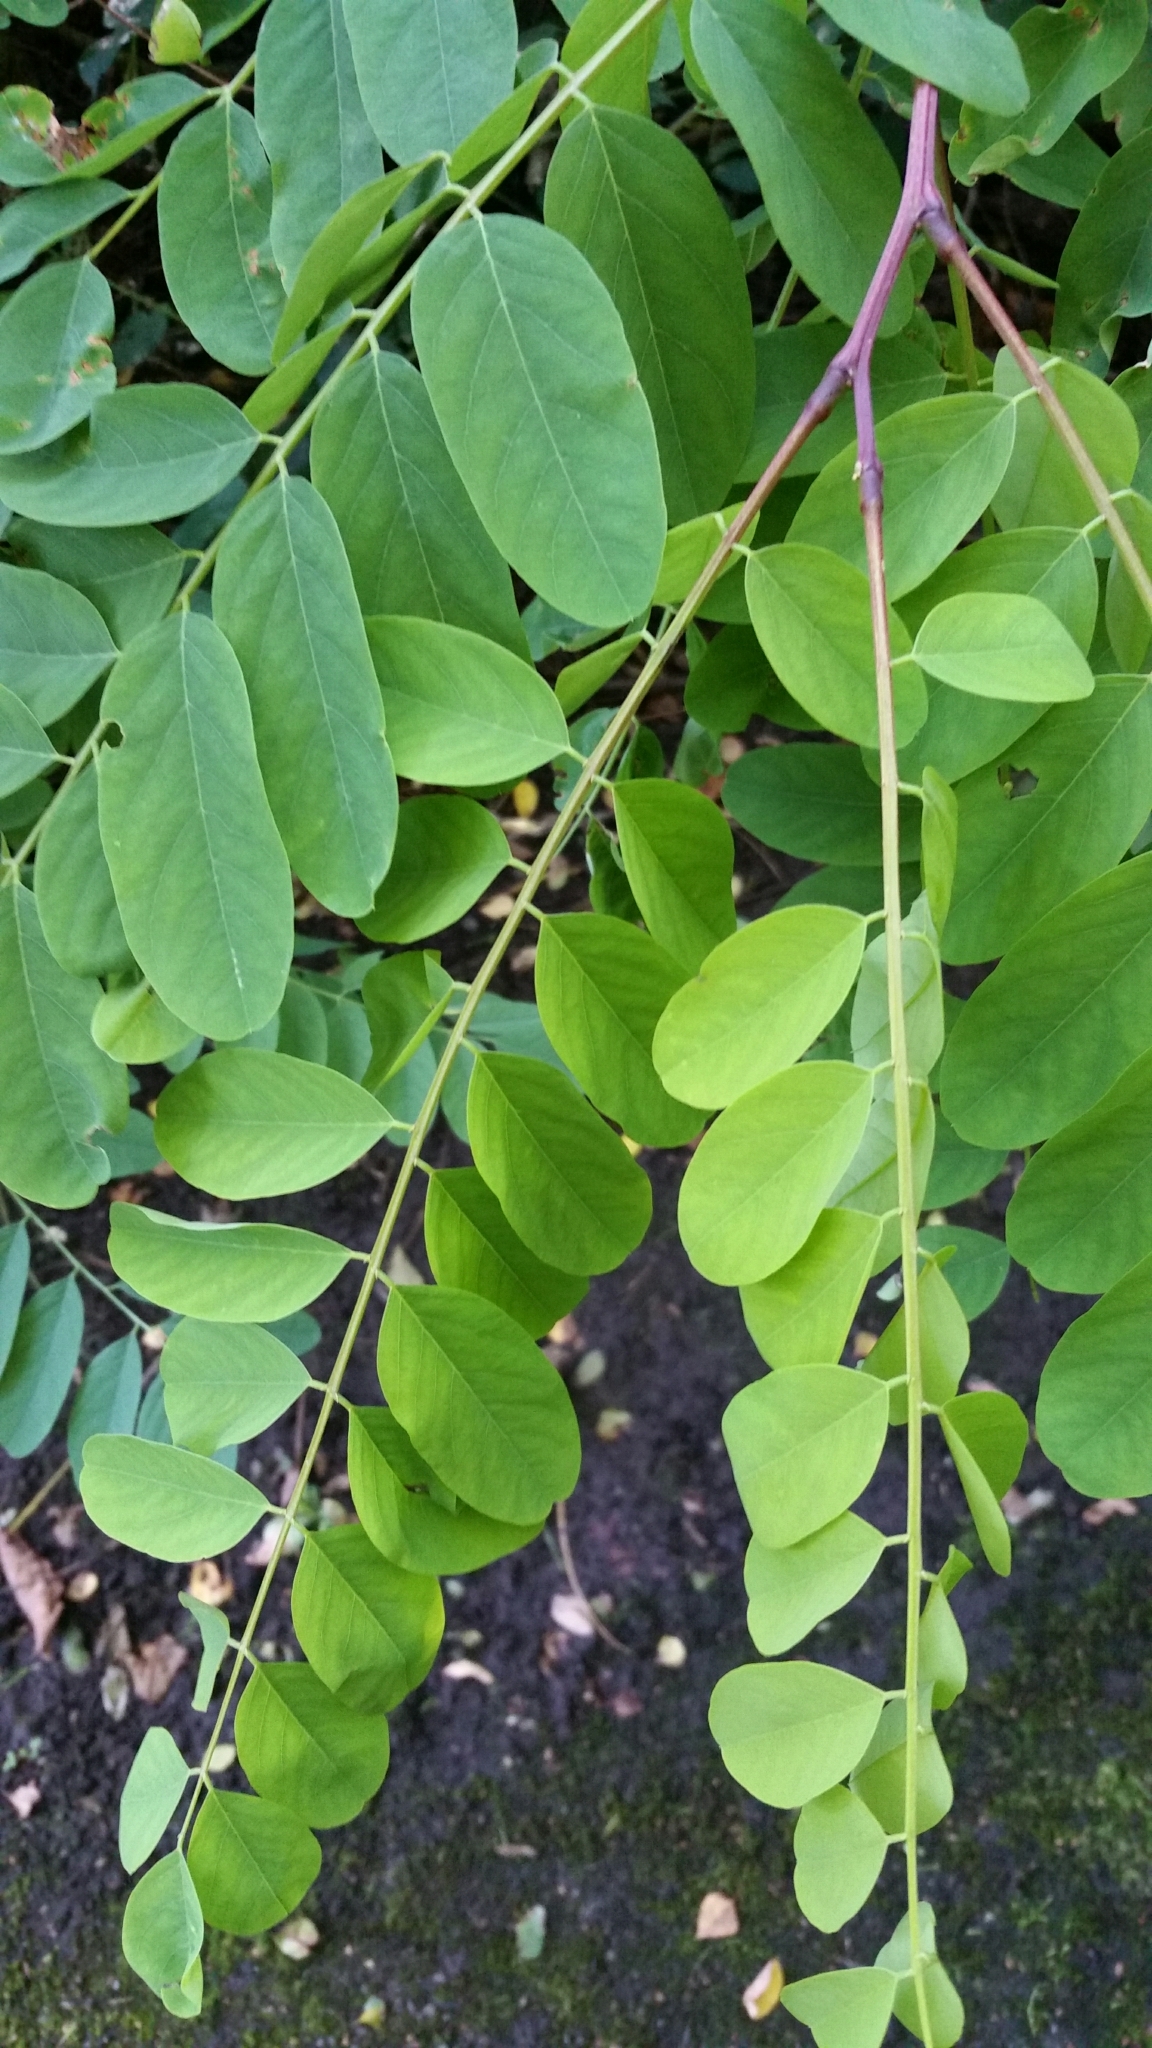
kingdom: Plantae
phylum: Tracheophyta
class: Magnoliopsida
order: Fabales
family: Fabaceae
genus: Robinia
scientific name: Robinia pseudoacacia
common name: Black locust
